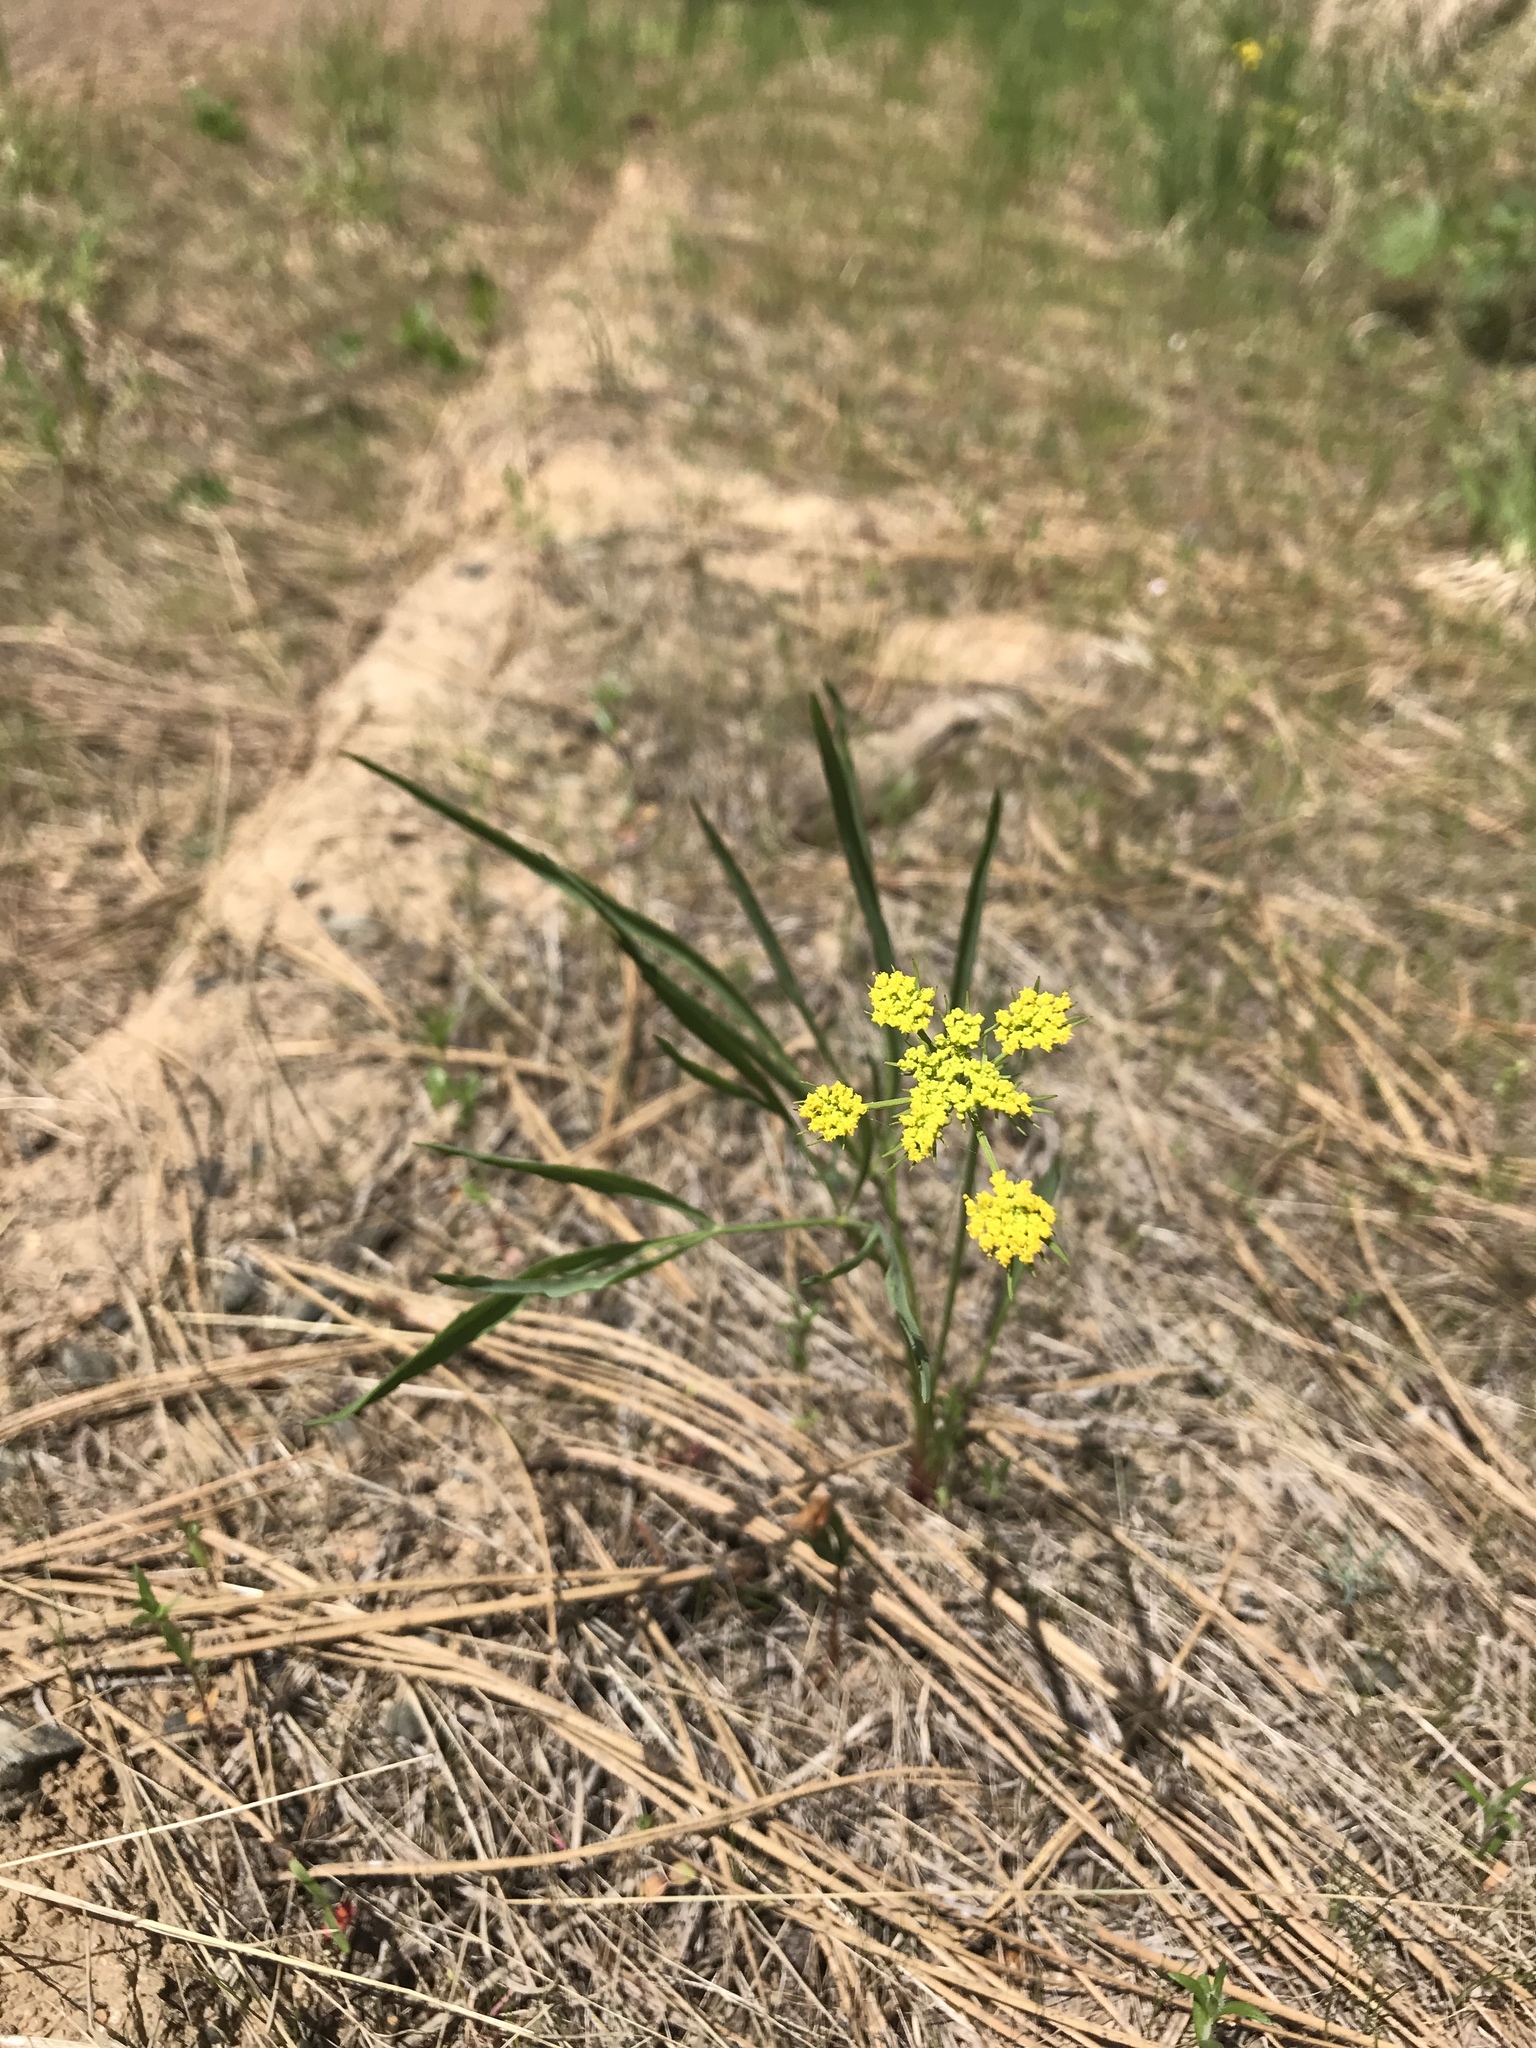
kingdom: Plantae
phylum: Tracheophyta
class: Magnoliopsida
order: Apiales
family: Apiaceae
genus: Lomatium
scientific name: Lomatium triternatum
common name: Ternate lomatium
